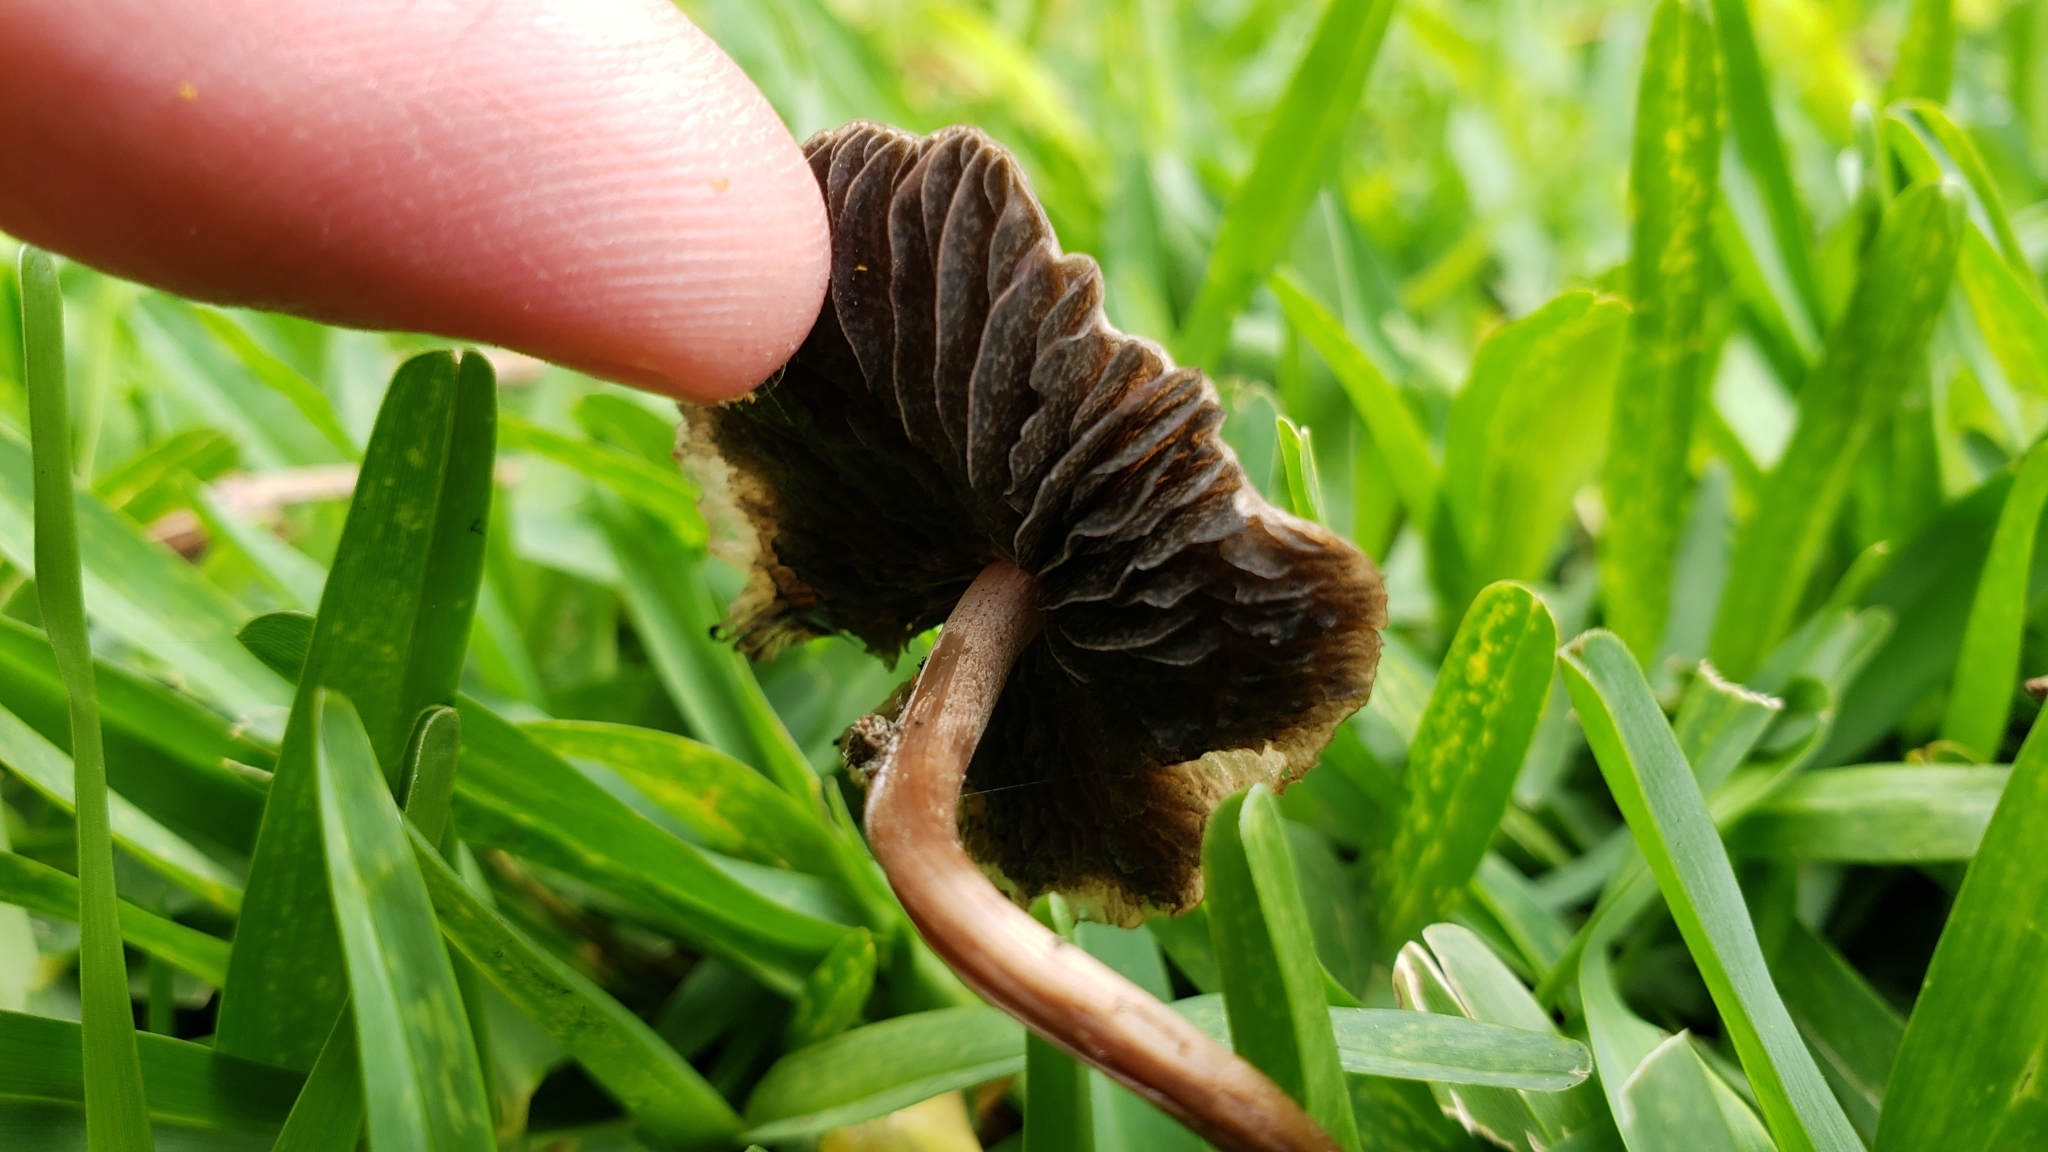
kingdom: Fungi
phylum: Basidiomycota
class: Agaricomycetes
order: Agaricales
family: Bolbitiaceae
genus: Panaeolus
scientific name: Panaeolus cinctulus
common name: Banded mottlegill
